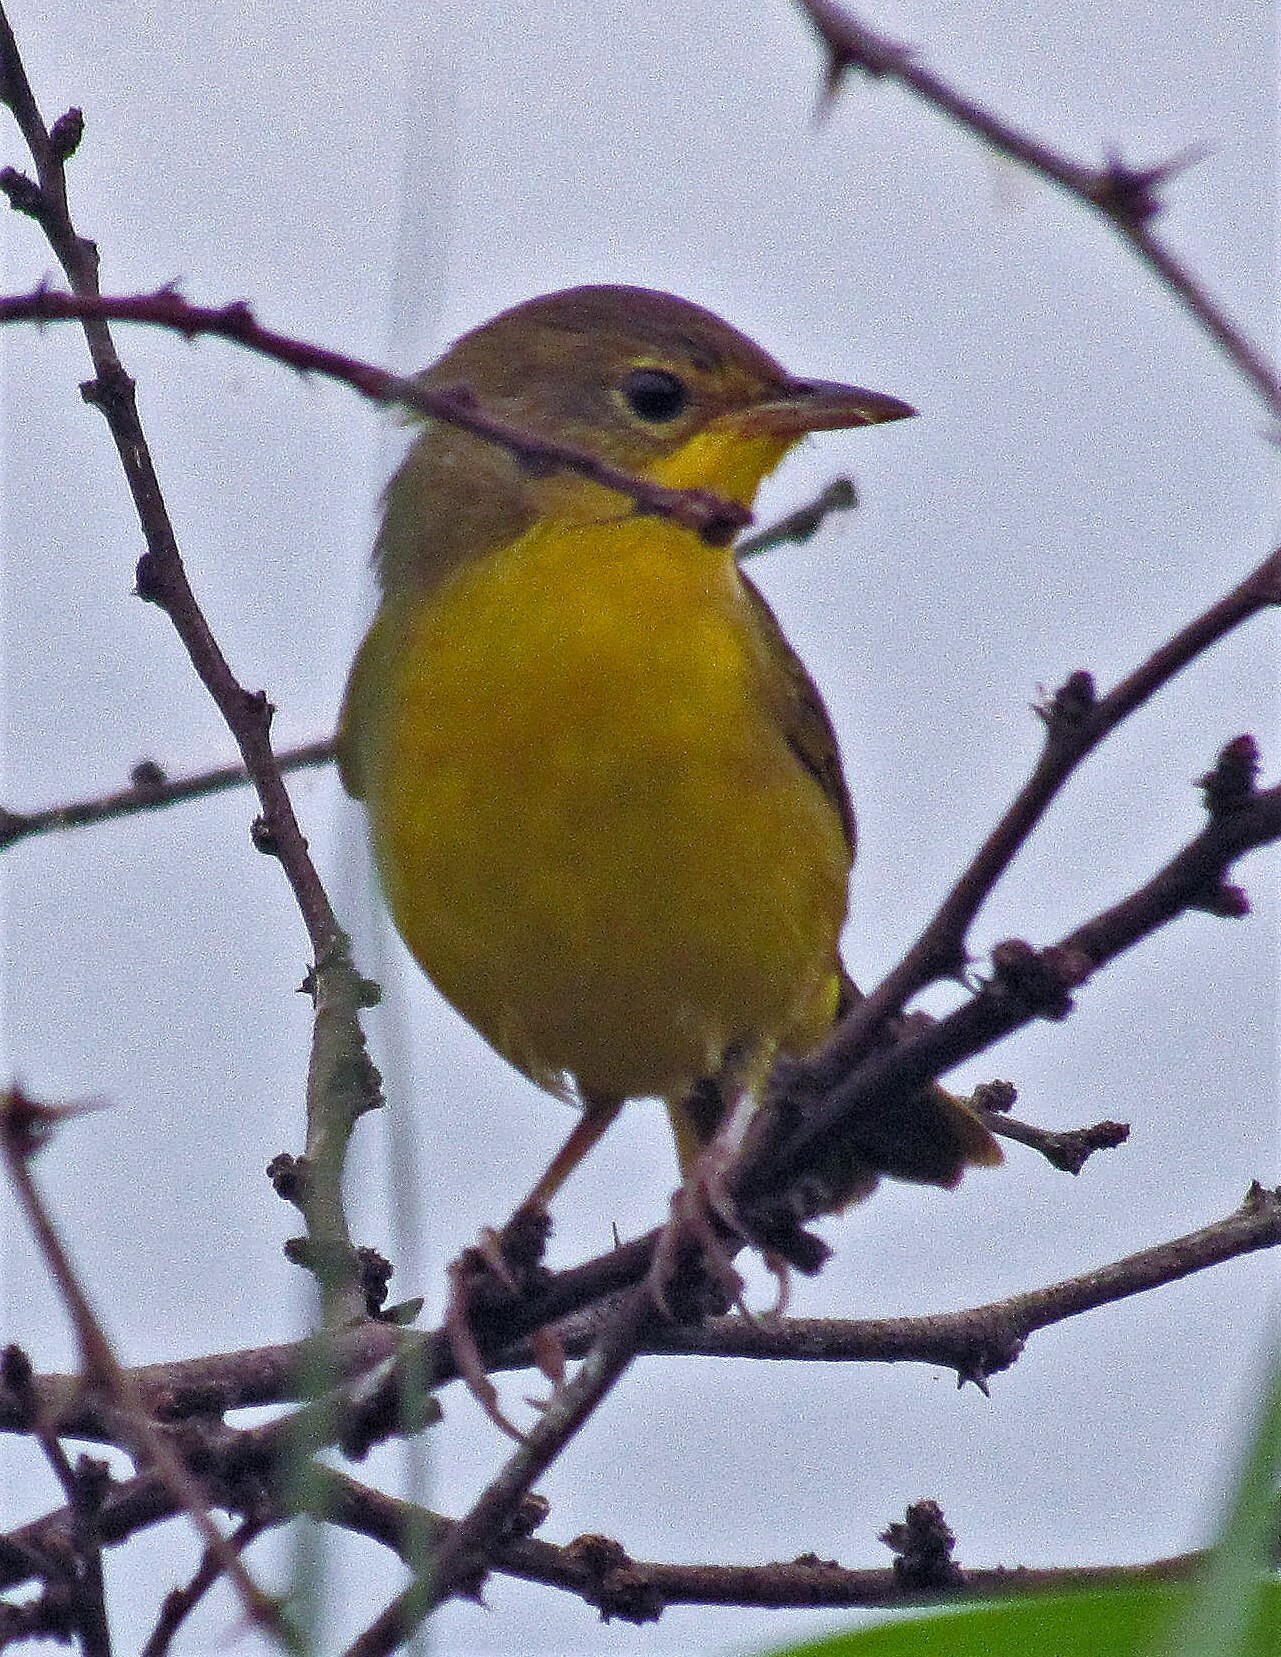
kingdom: Animalia
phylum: Chordata
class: Aves
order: Passeriformes
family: Parulidae
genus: Geothlypis
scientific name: Geothlypis velata
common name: Southern yellowthroat
